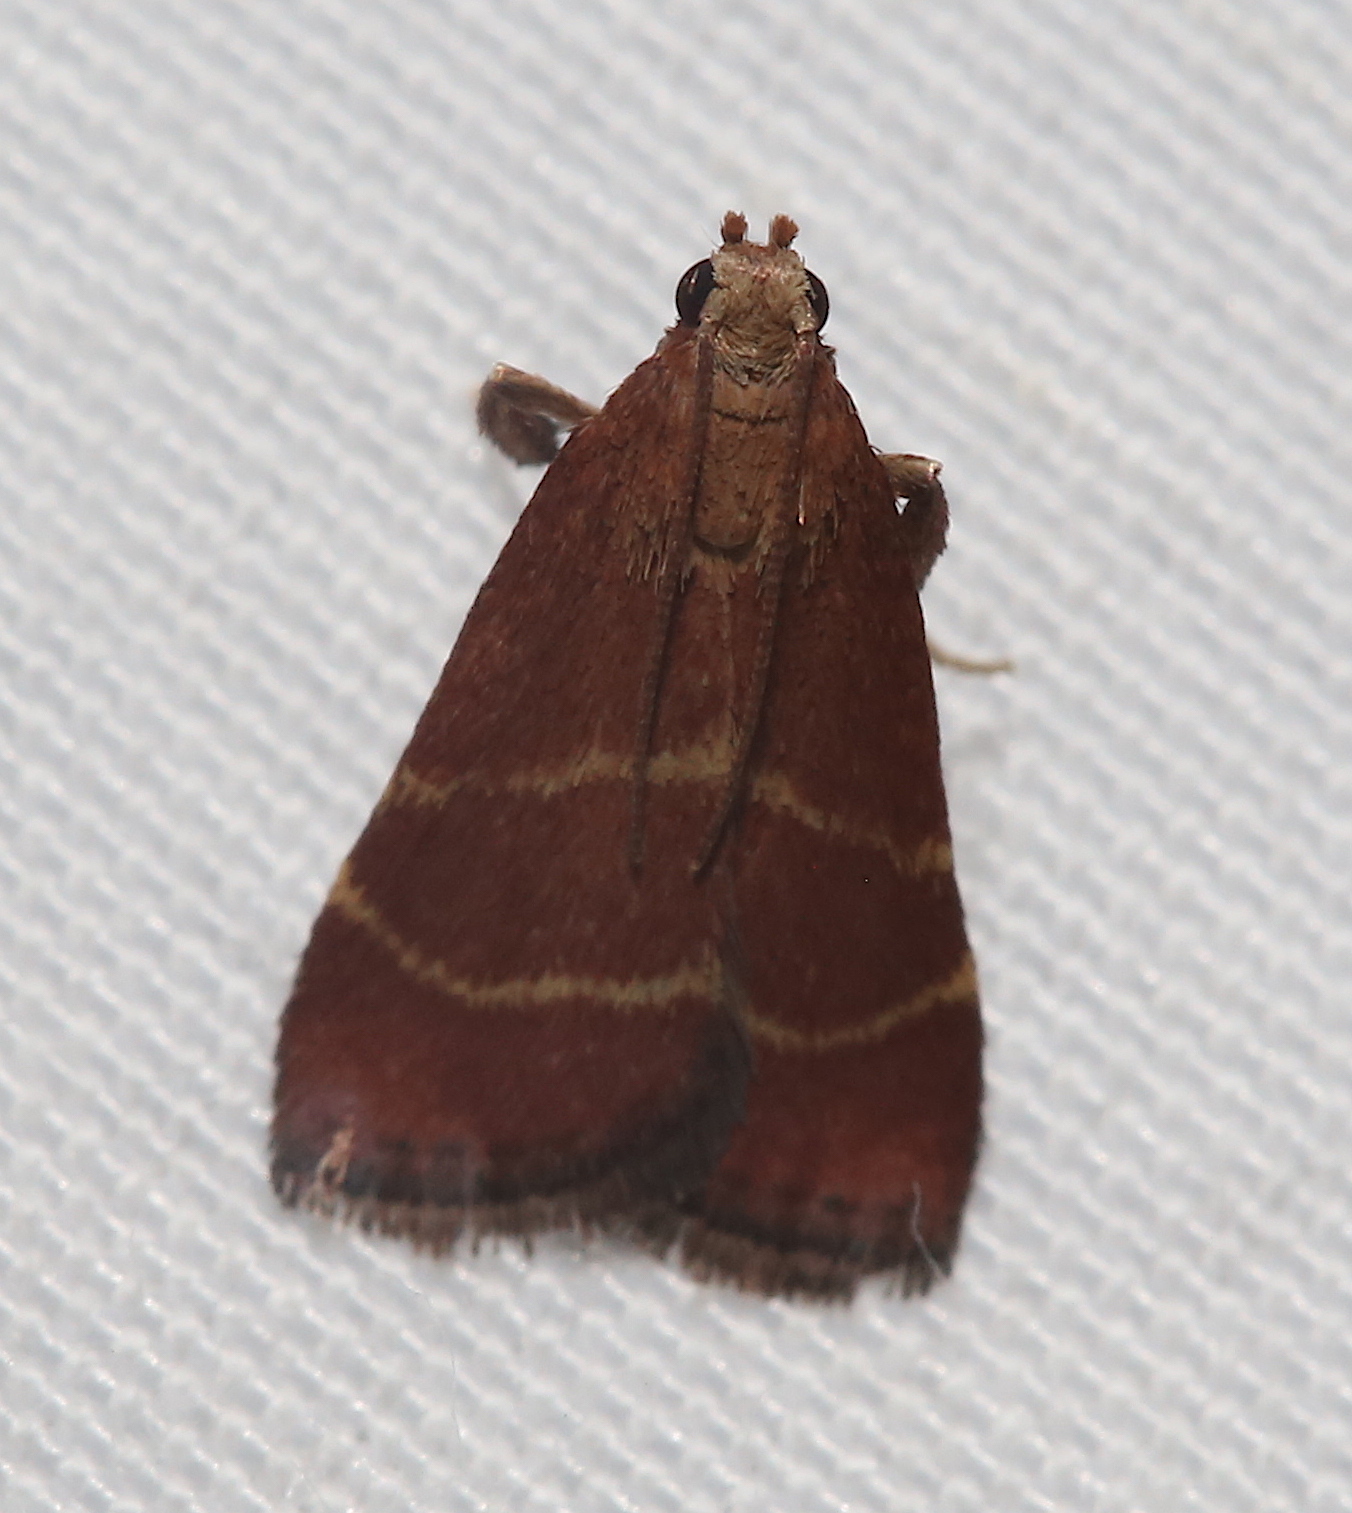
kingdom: Animalia
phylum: Arthropoda
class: Insecta
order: Lepidoptera
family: Pyralidae
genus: Arta
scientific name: Arta statalis
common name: Posturing arta moth
